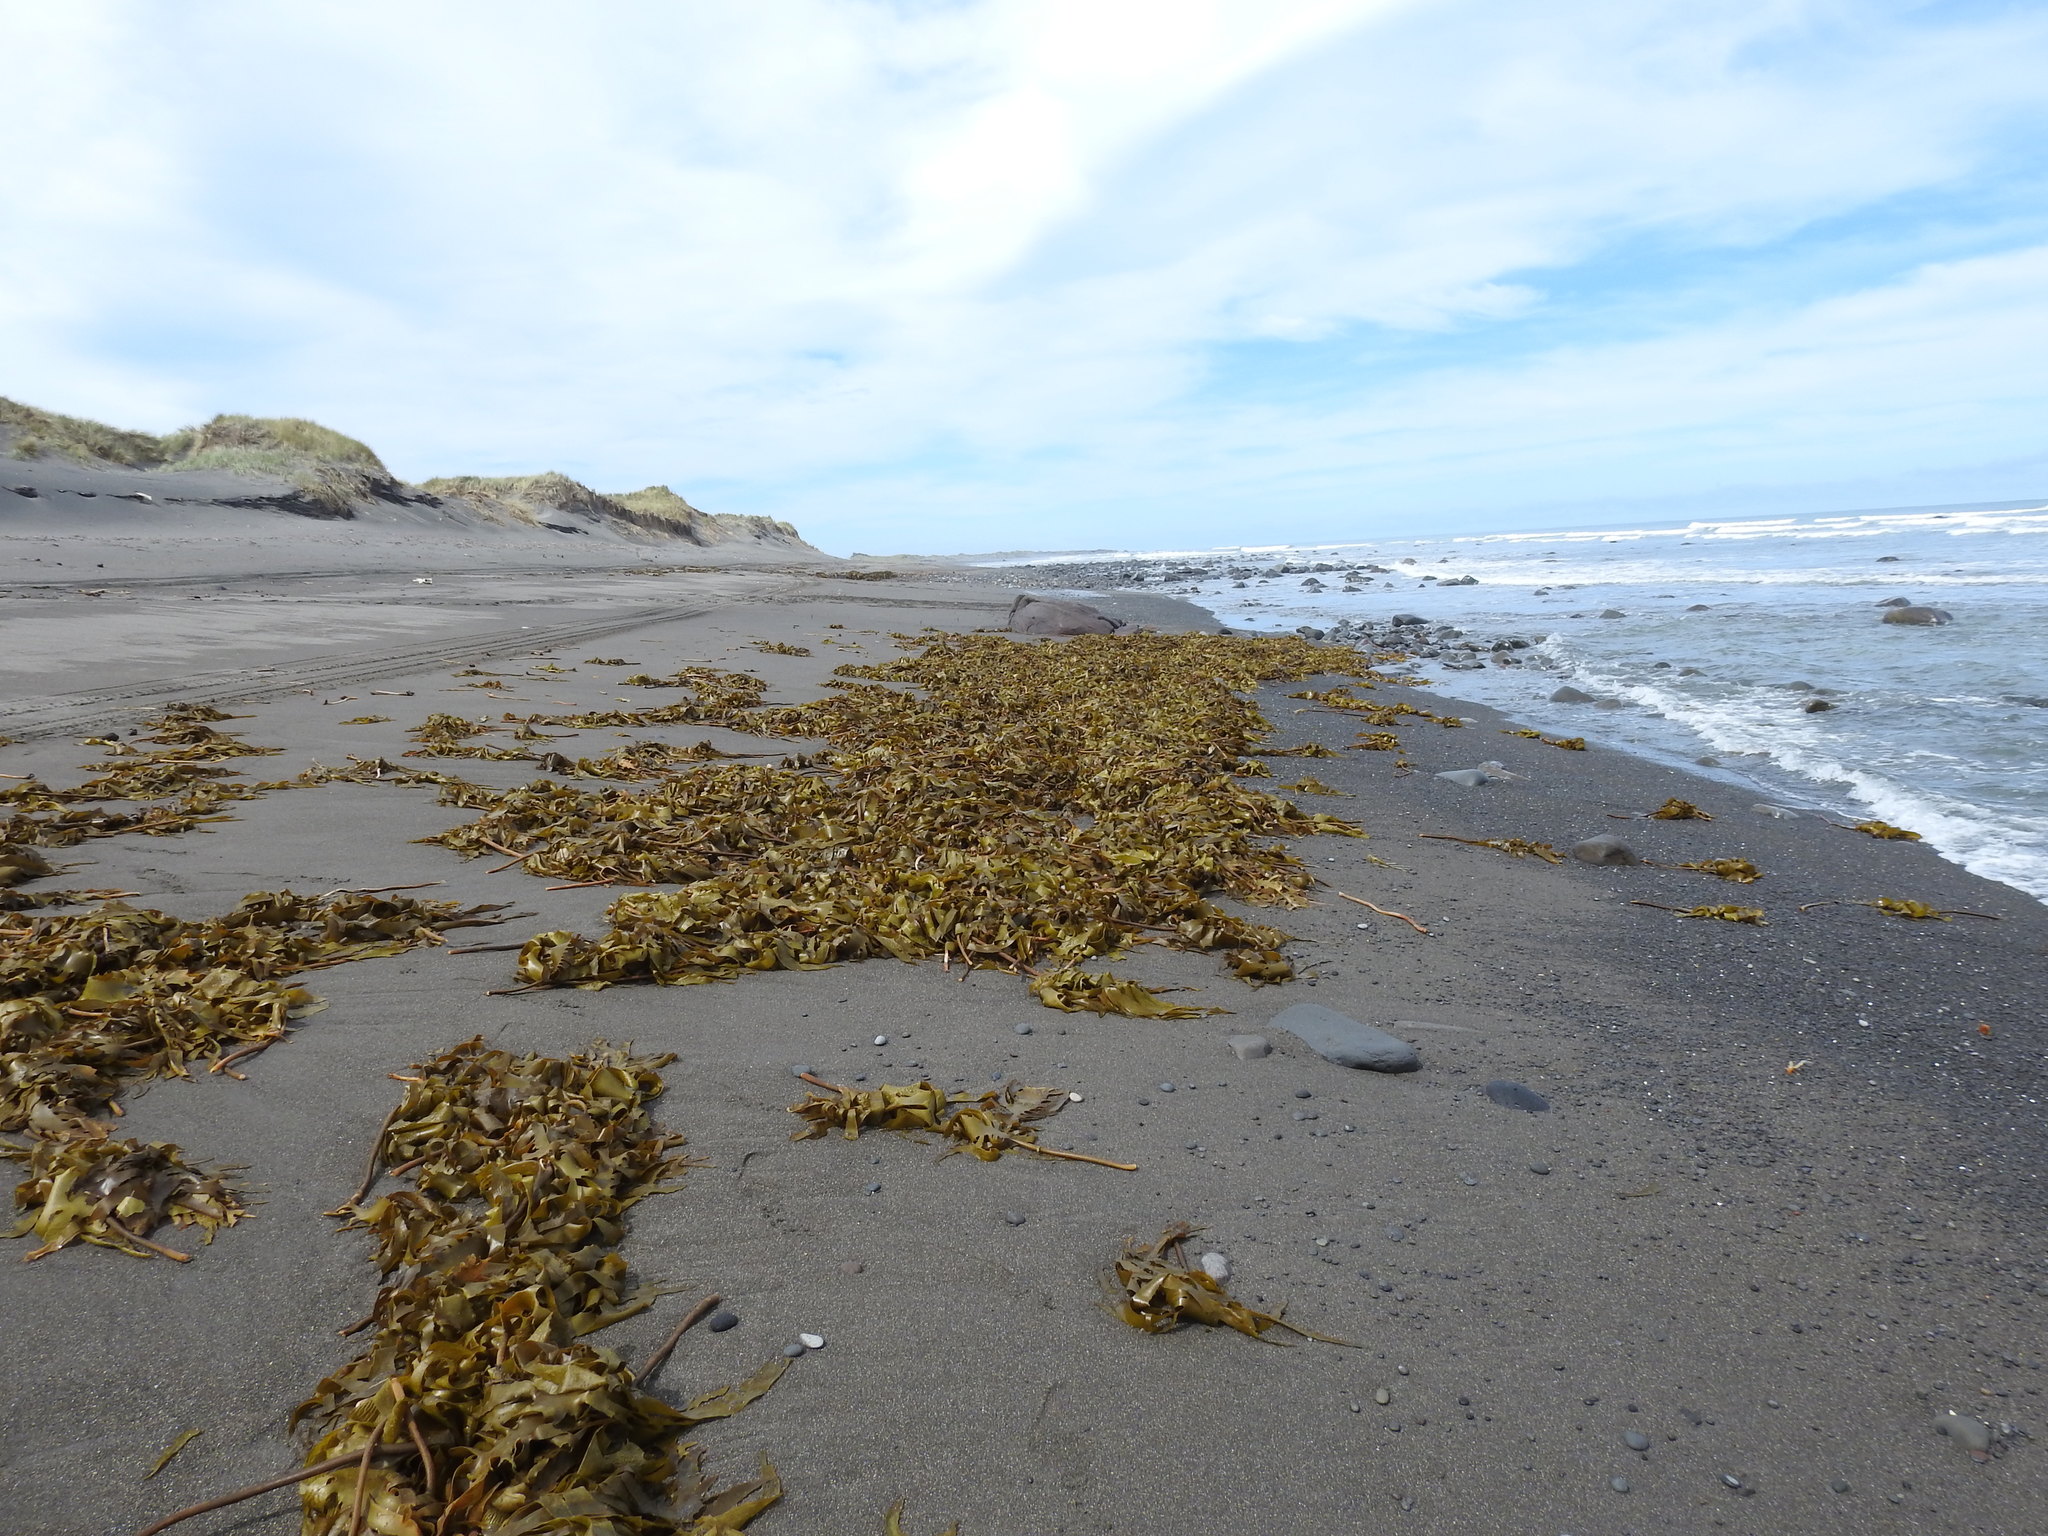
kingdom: Chromista
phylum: Ochrophyta
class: Phaeophyceae
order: Laminariales
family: Lessoniaceae
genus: Ecklonia
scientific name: Ecklonia radiata
